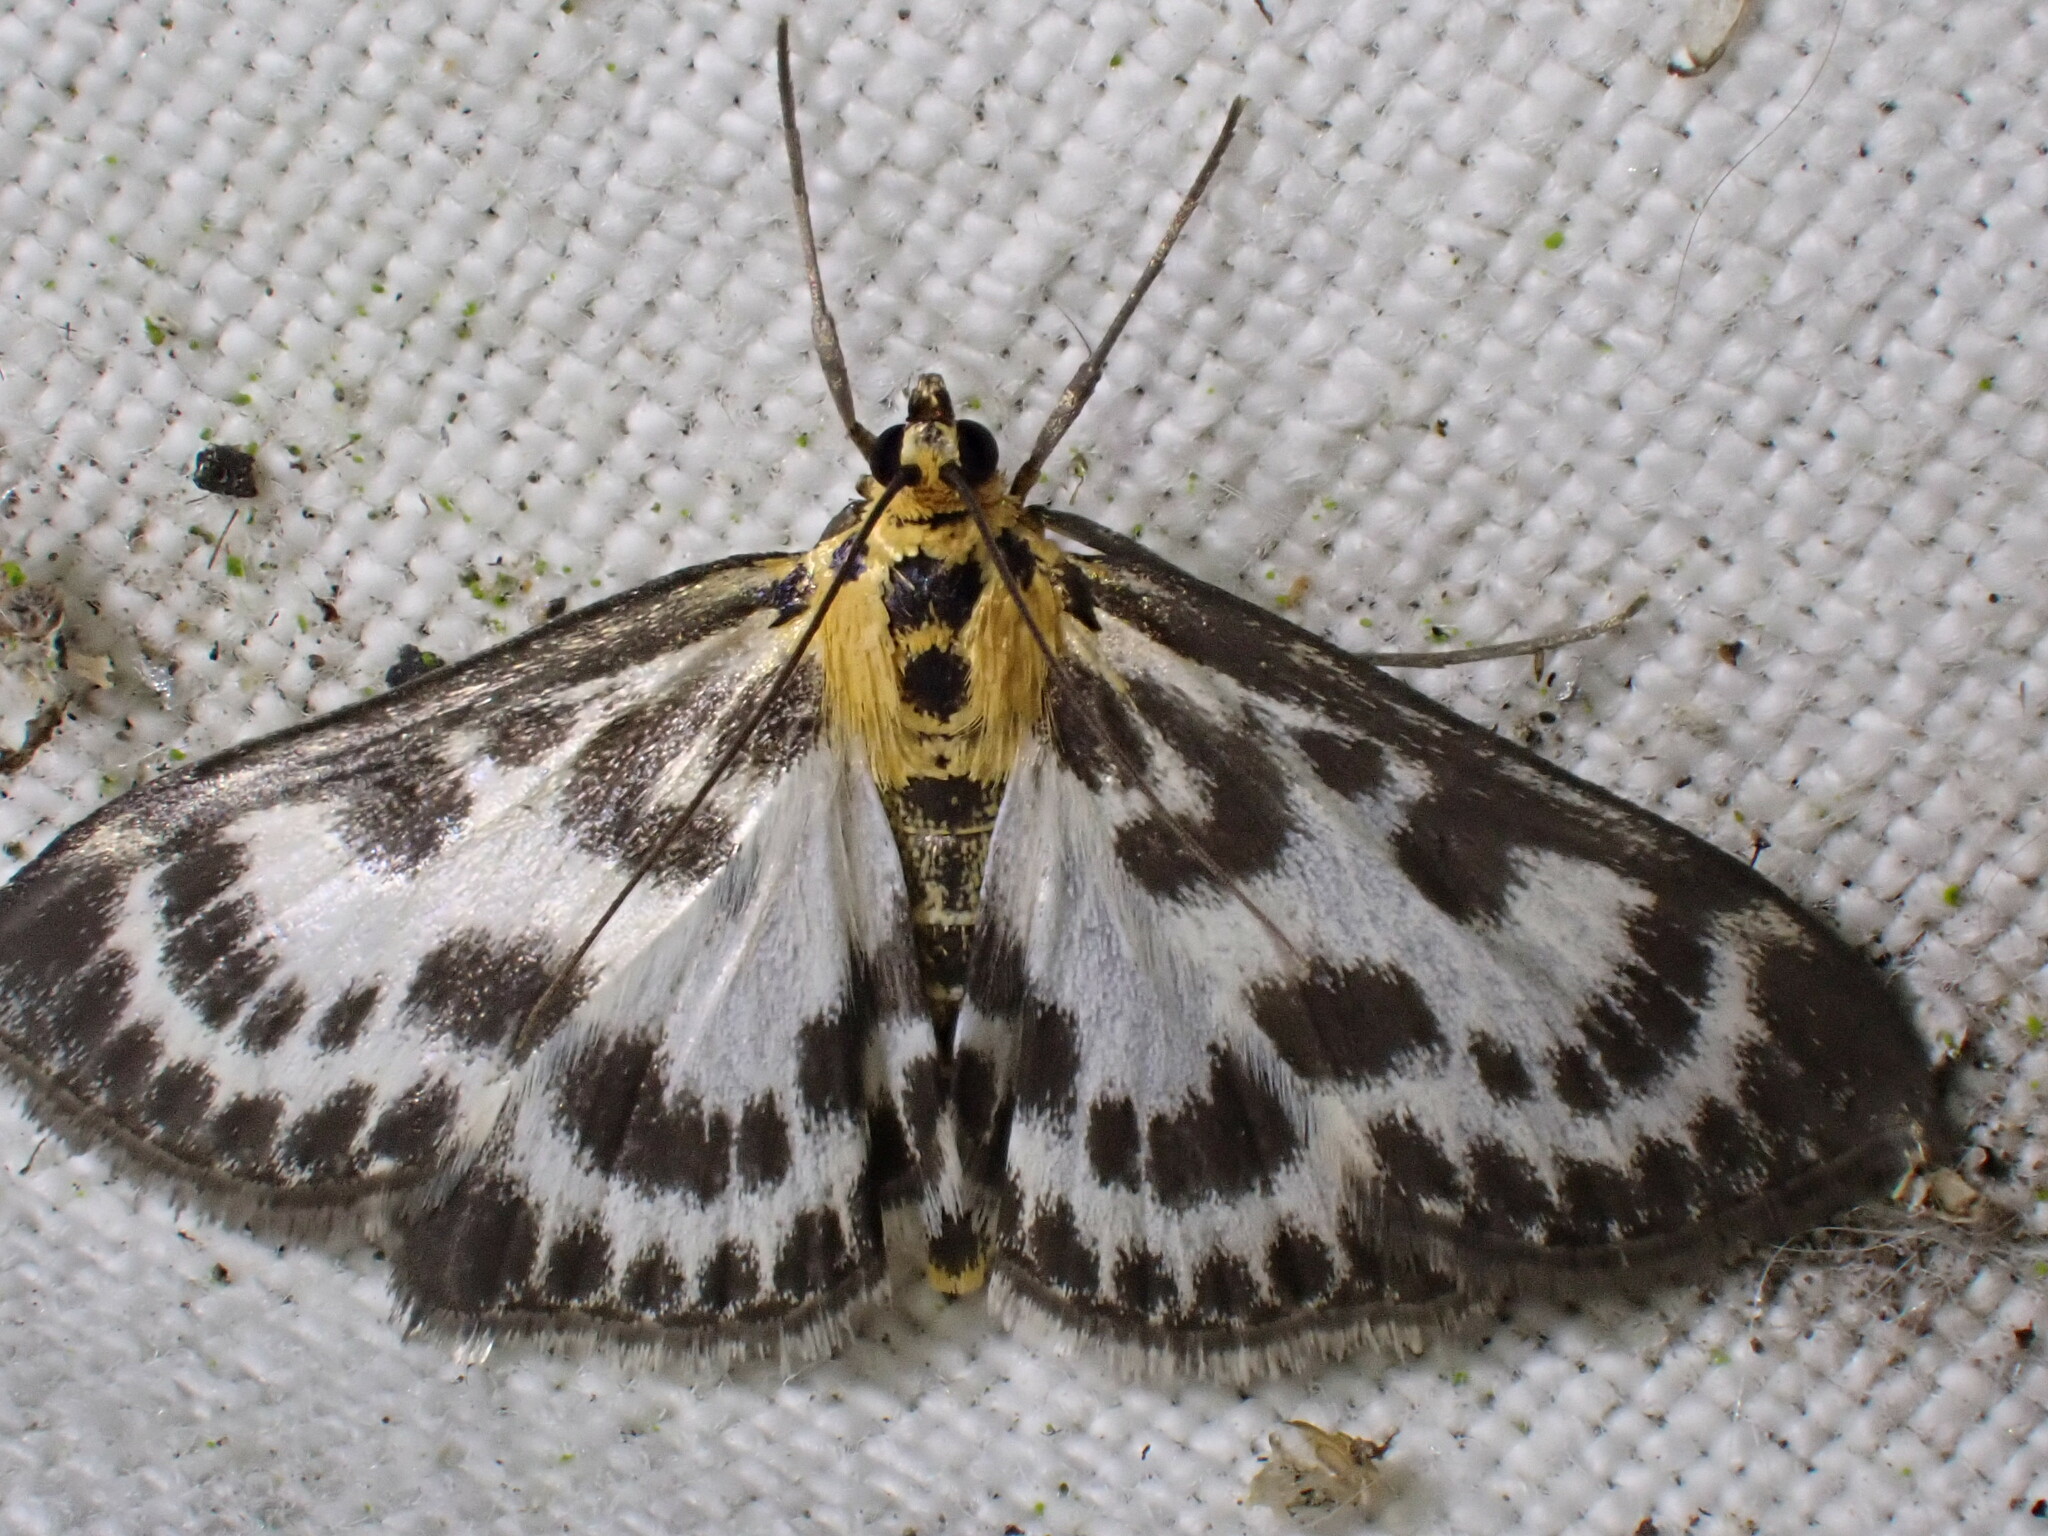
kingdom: Animalia
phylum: Arthropoda
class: Insecta
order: Lepidoptera
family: Crambidae
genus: Anania
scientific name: Anania hortulata
